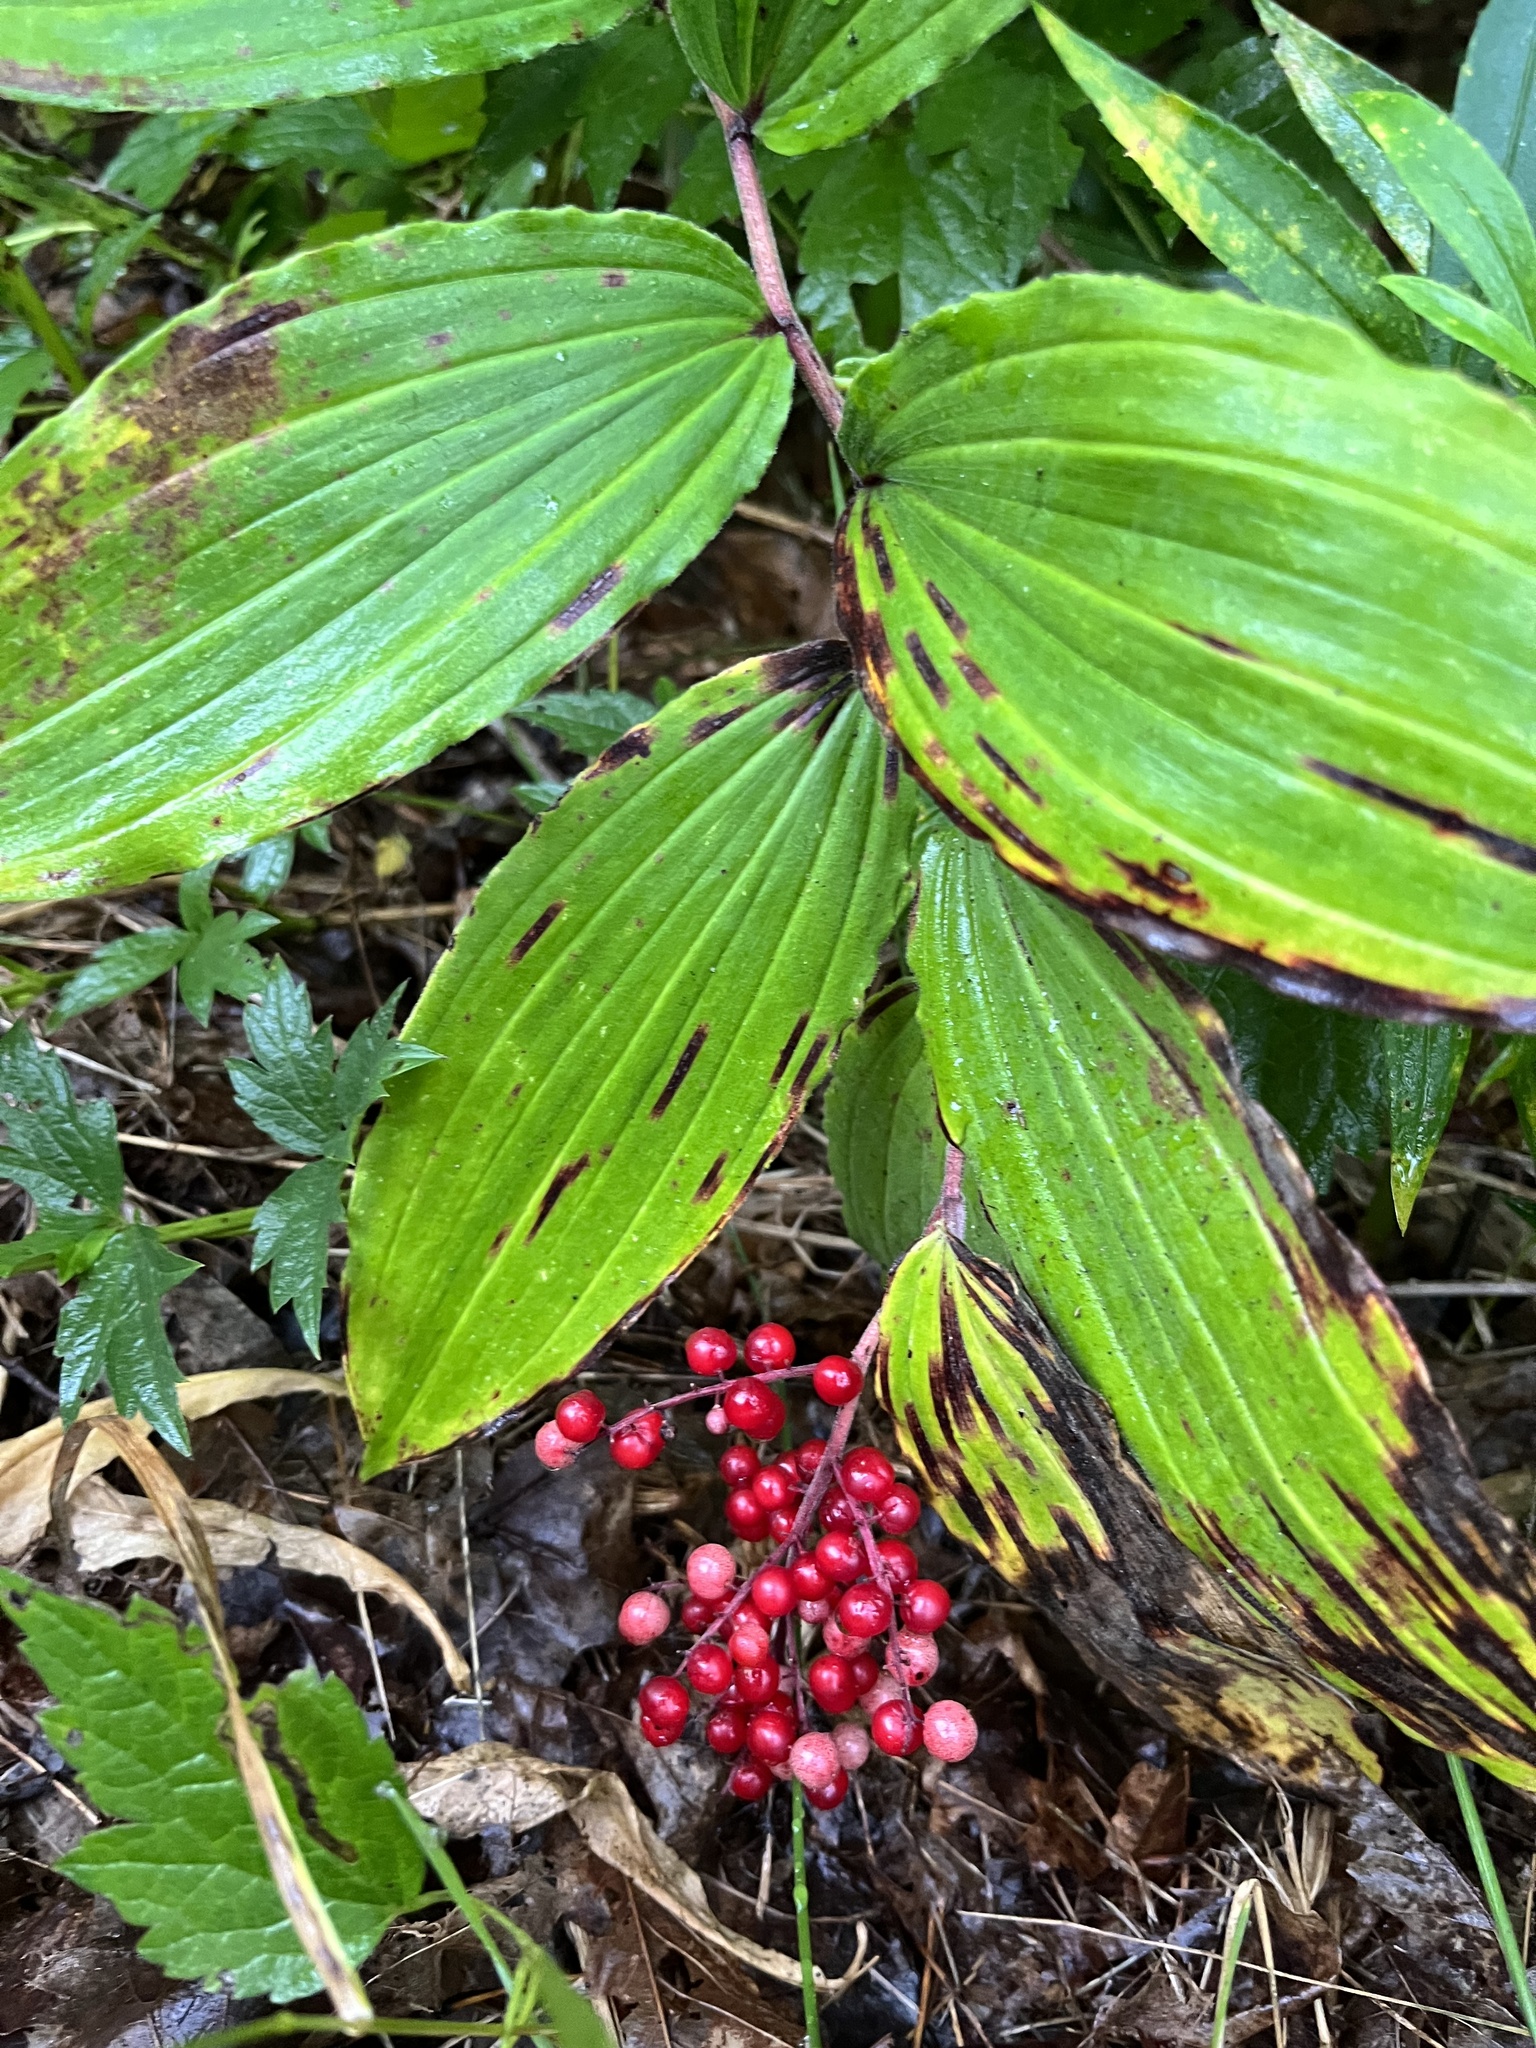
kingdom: Plantae
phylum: Tracheophyta
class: Liliopsida
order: Asparagales
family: Asparagaceae
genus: Maianthemum
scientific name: Maianthemum racemosum
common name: False spikenard
